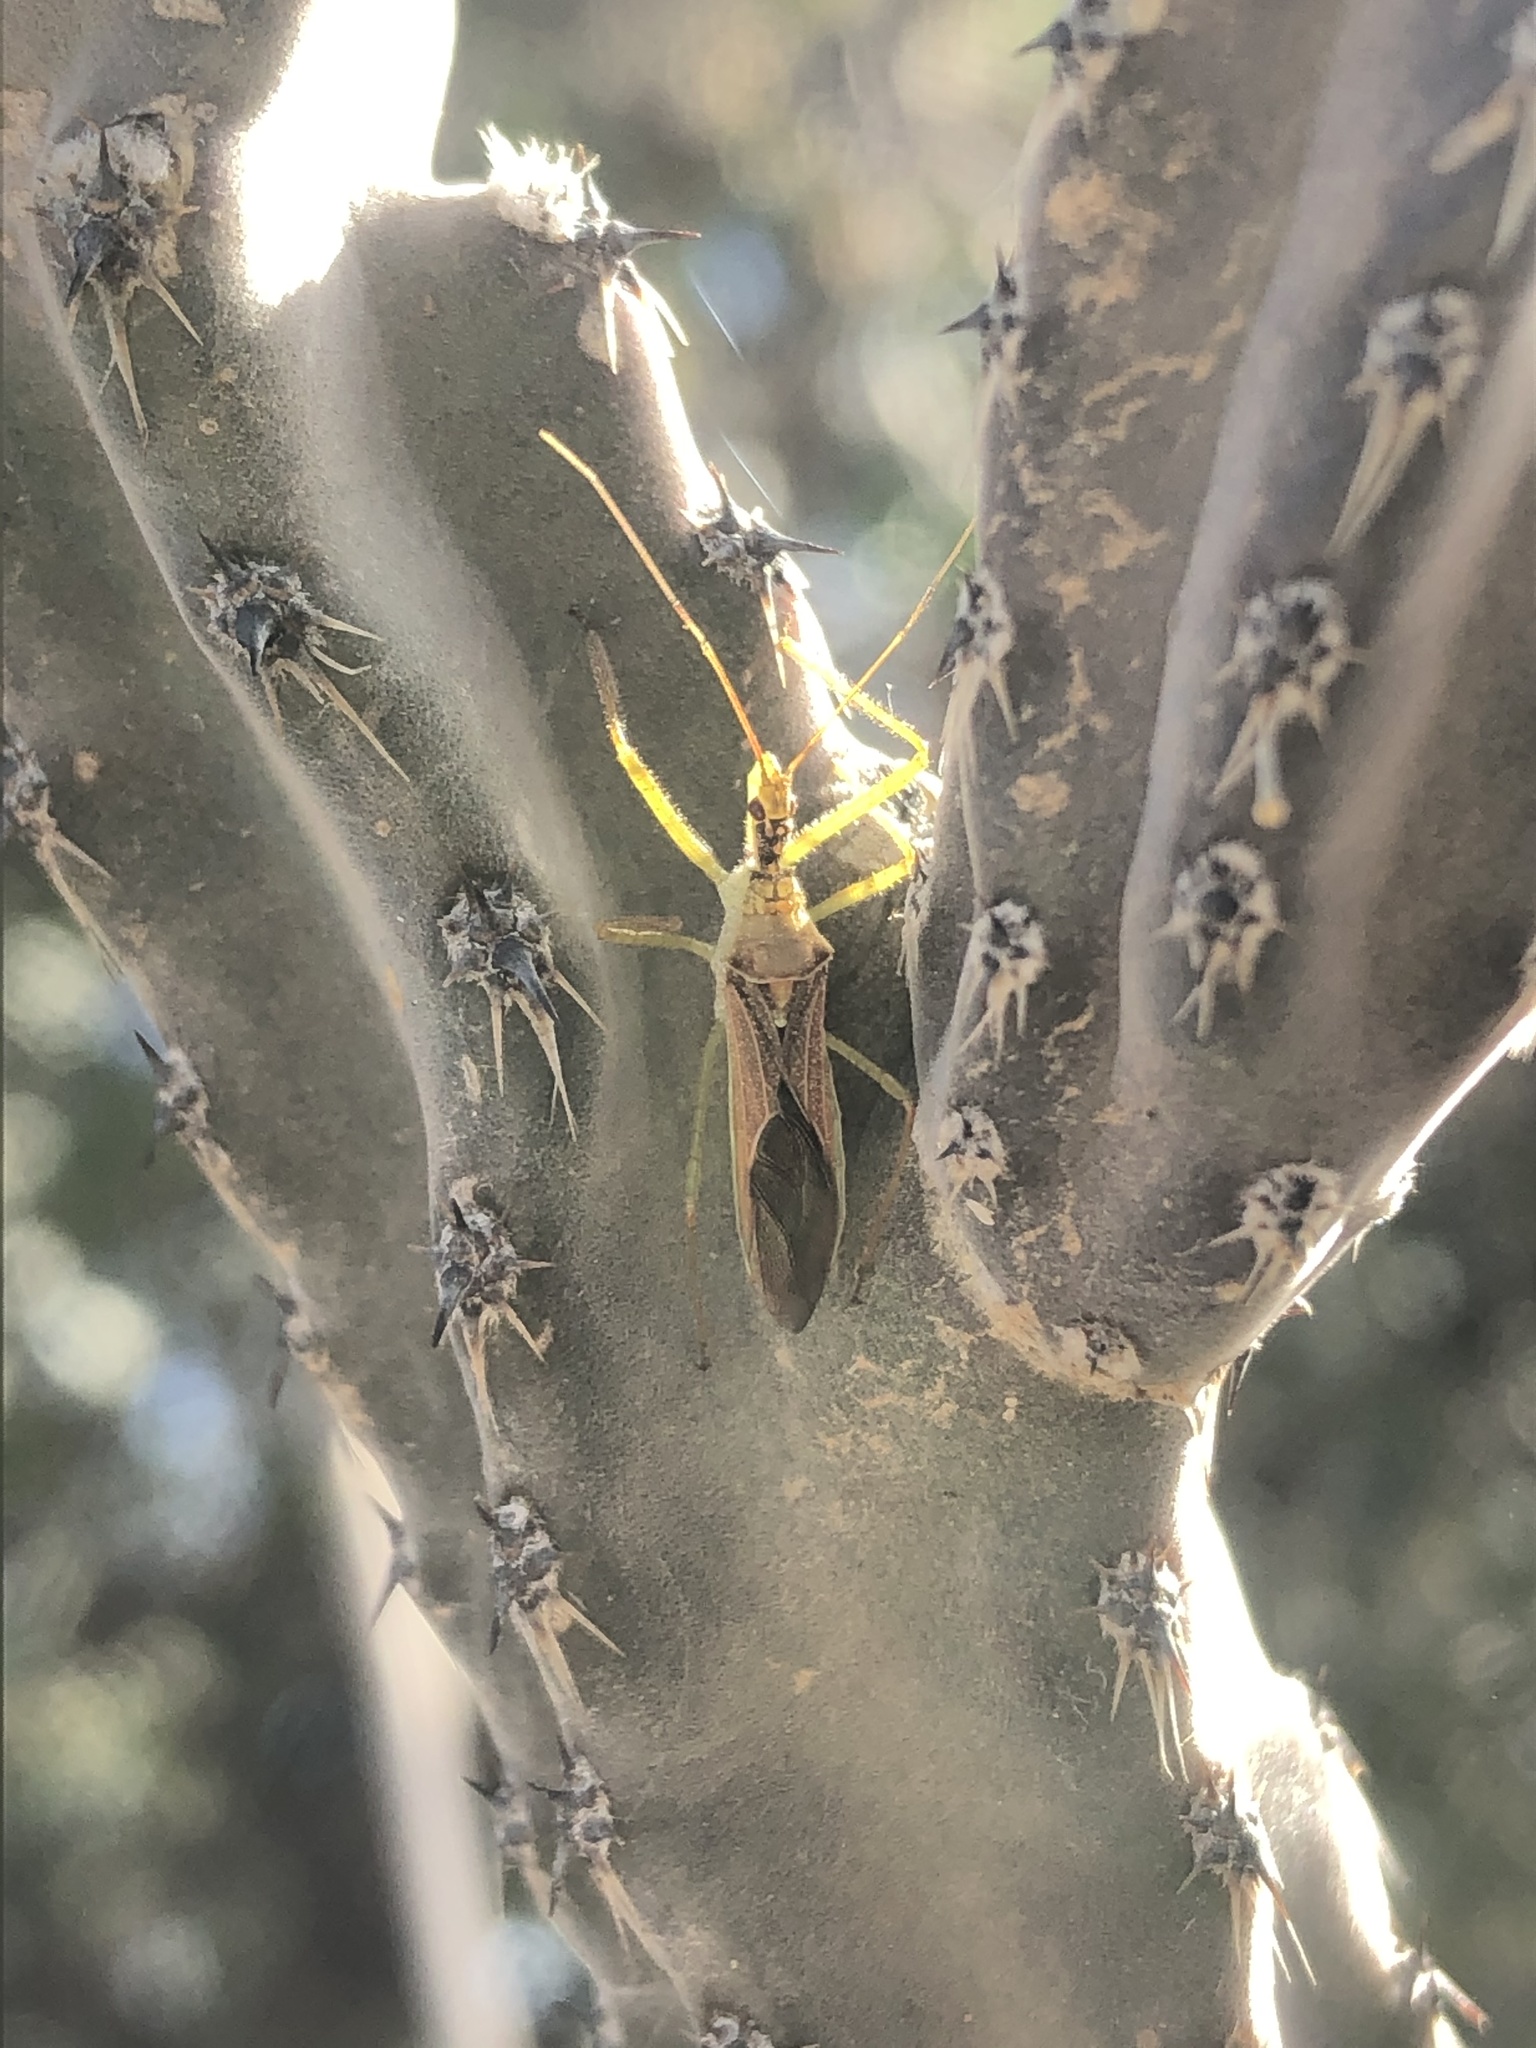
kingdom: Animalia
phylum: Arthropoda
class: Insecta
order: Hemiptera
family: Reduviidae
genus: Zelus
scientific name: Zelus renardii
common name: Assassin bug
